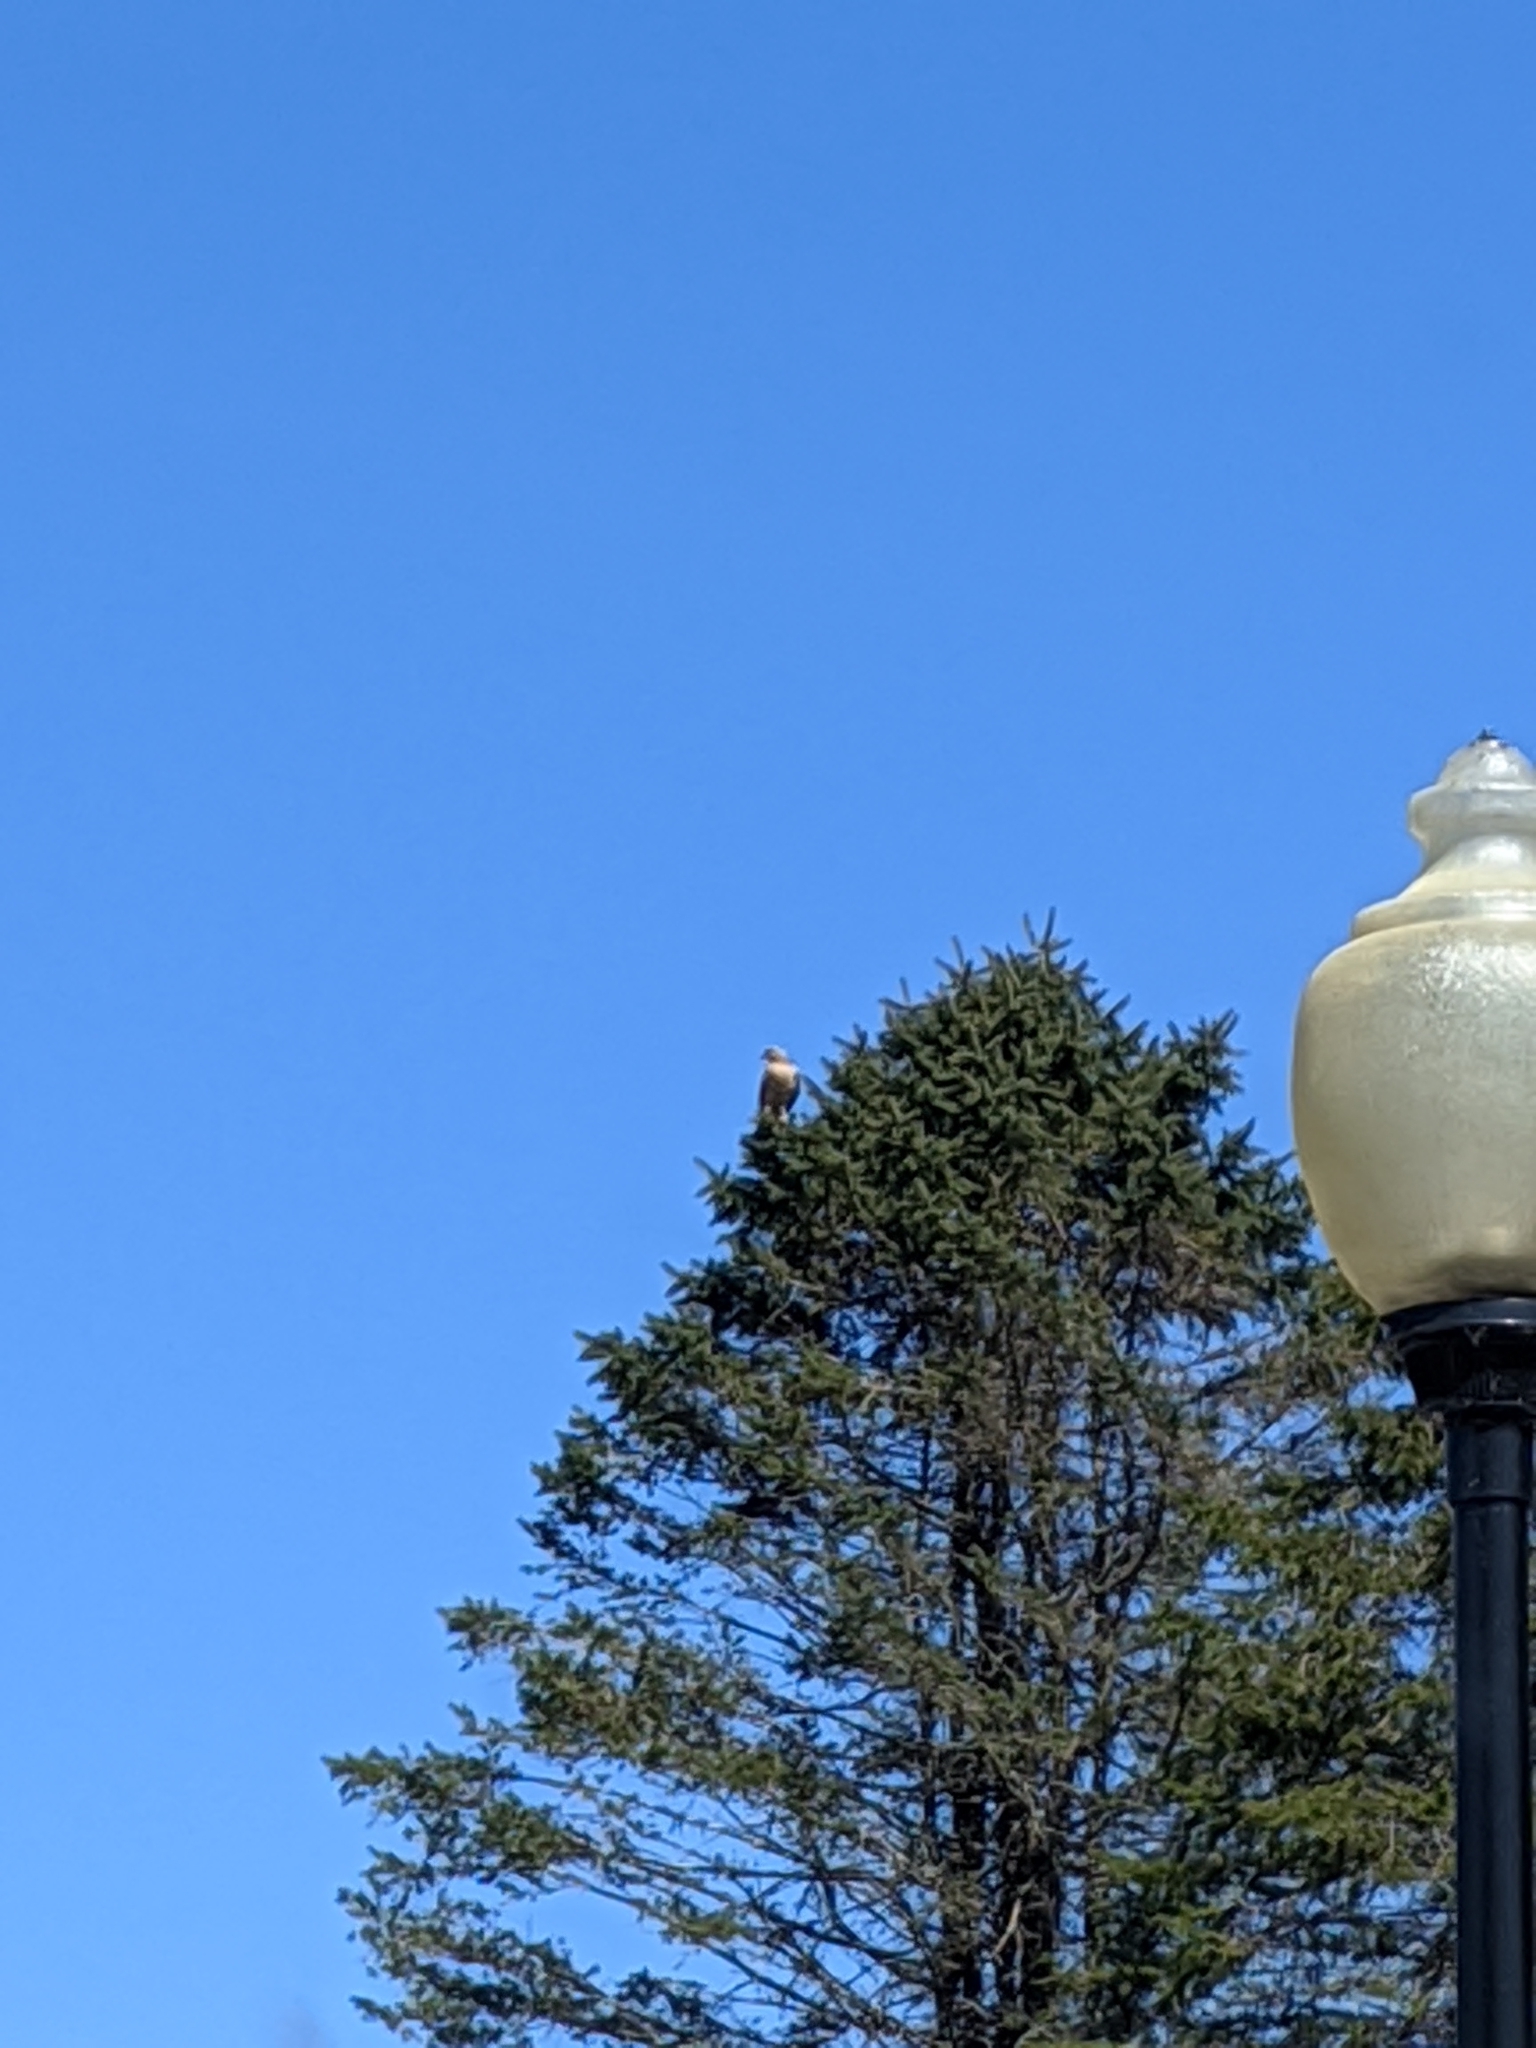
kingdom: Animalia
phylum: Chordata
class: Aves
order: Accipitriformes
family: Accipitridae
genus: Buteo
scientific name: Buteo lineatus
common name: Red-shouldered hawk
